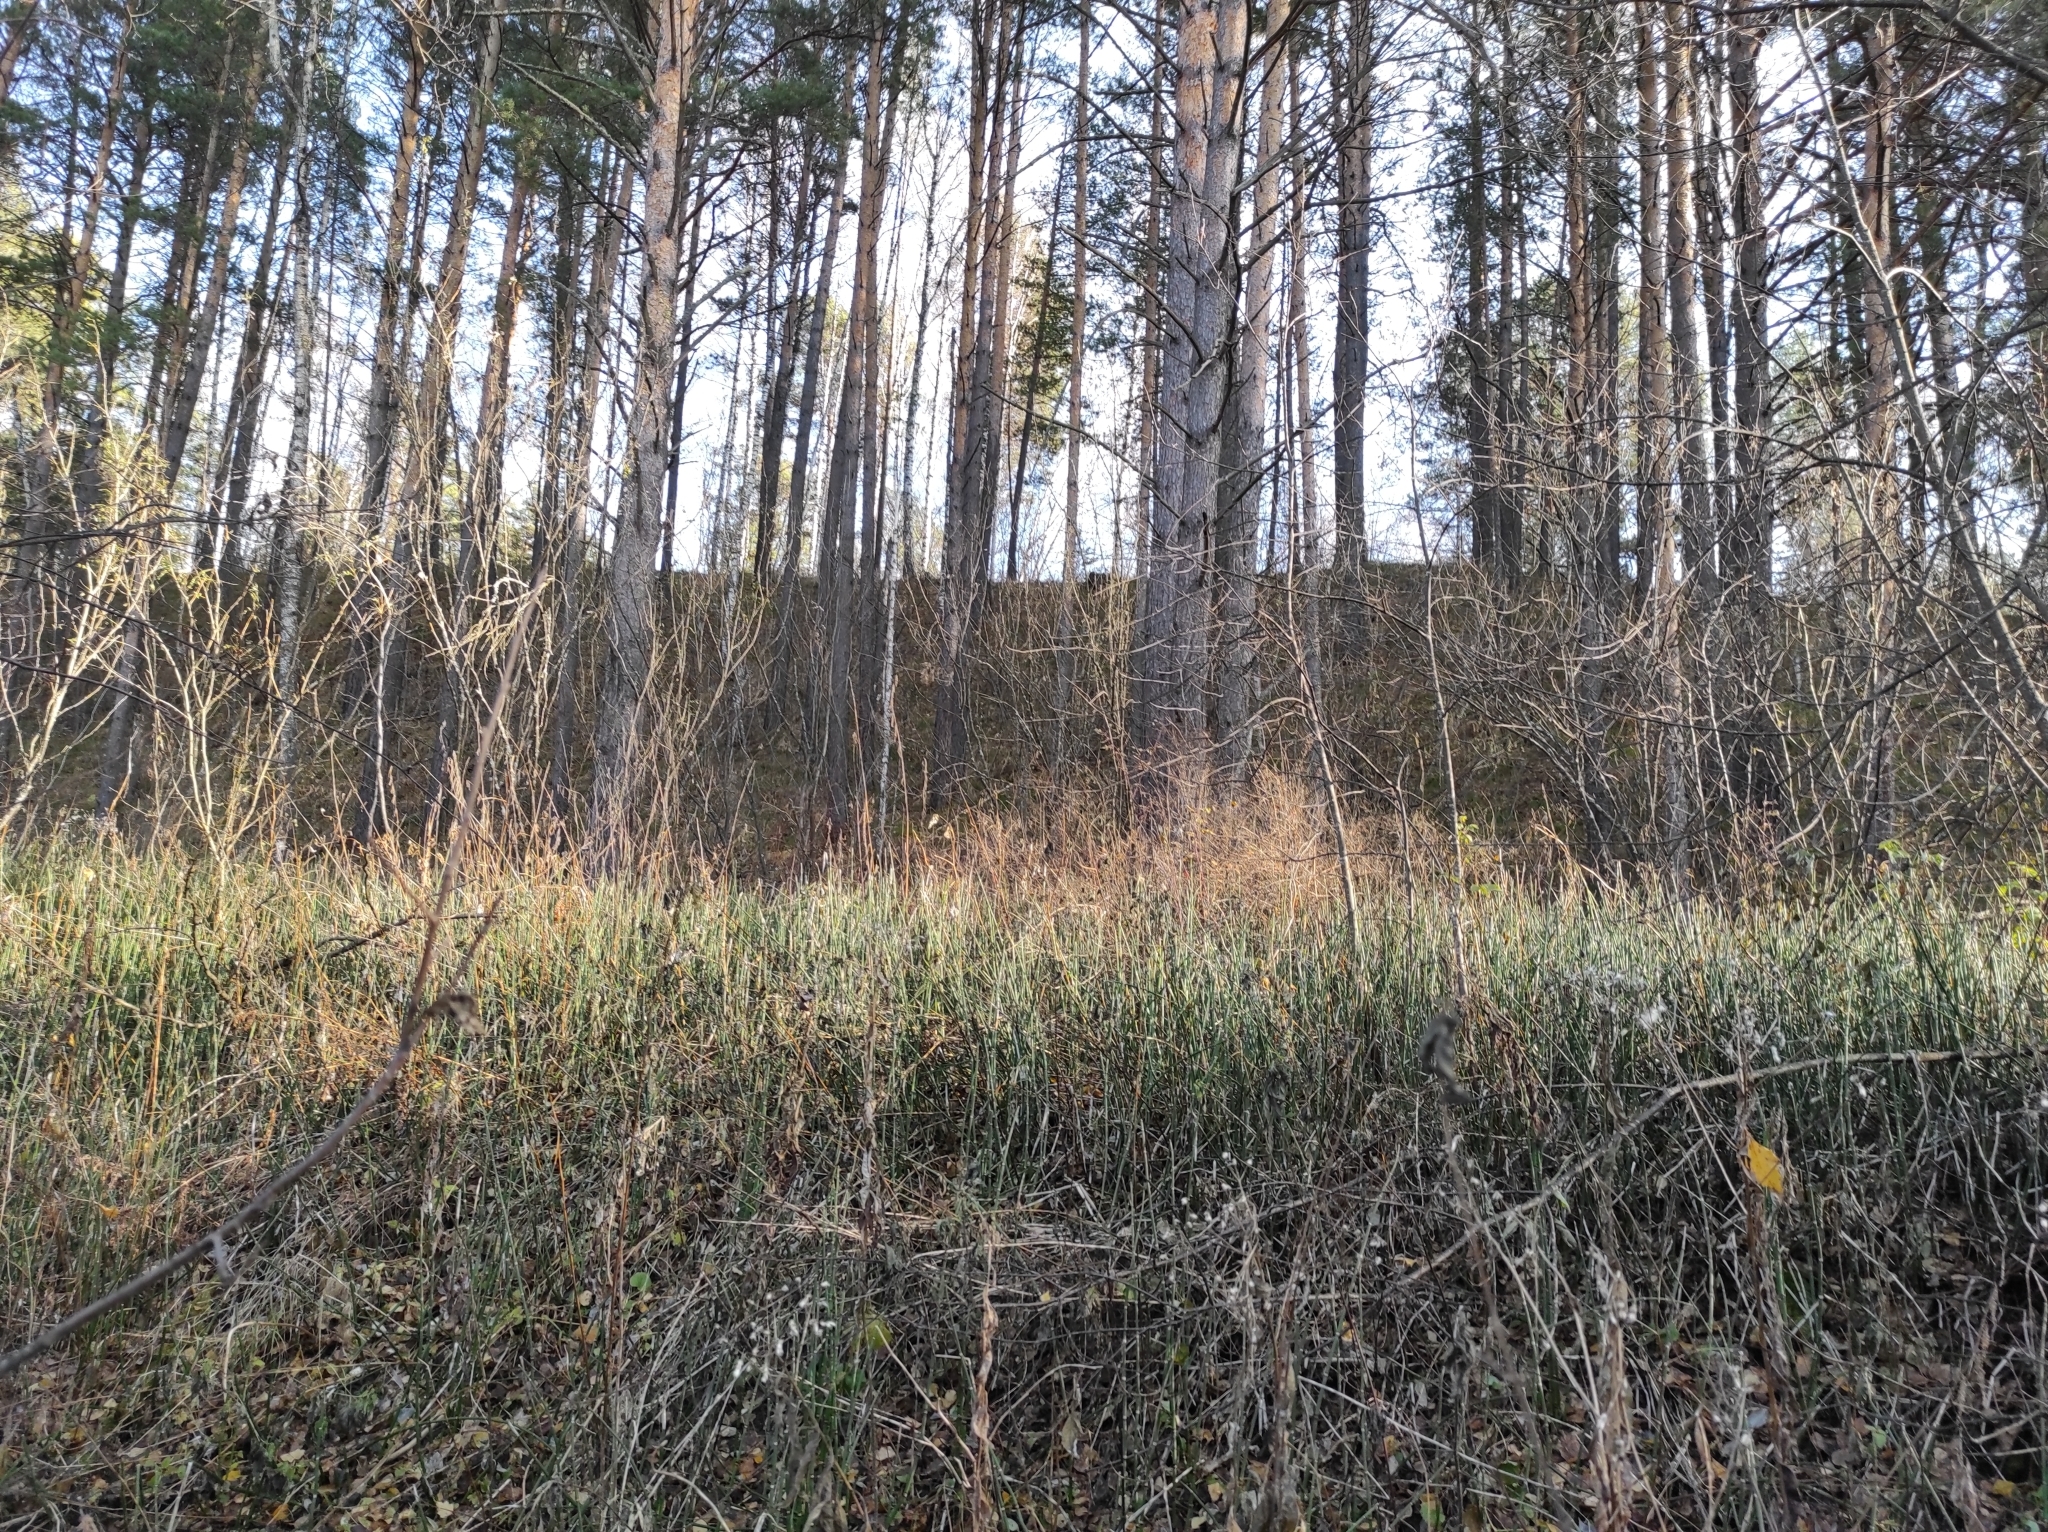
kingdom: Plantae
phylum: Tracheophyta
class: Pinopsida
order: Pinales
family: Pinaceae
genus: Pinus
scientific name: Pinus sylvestris
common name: Scots pine
